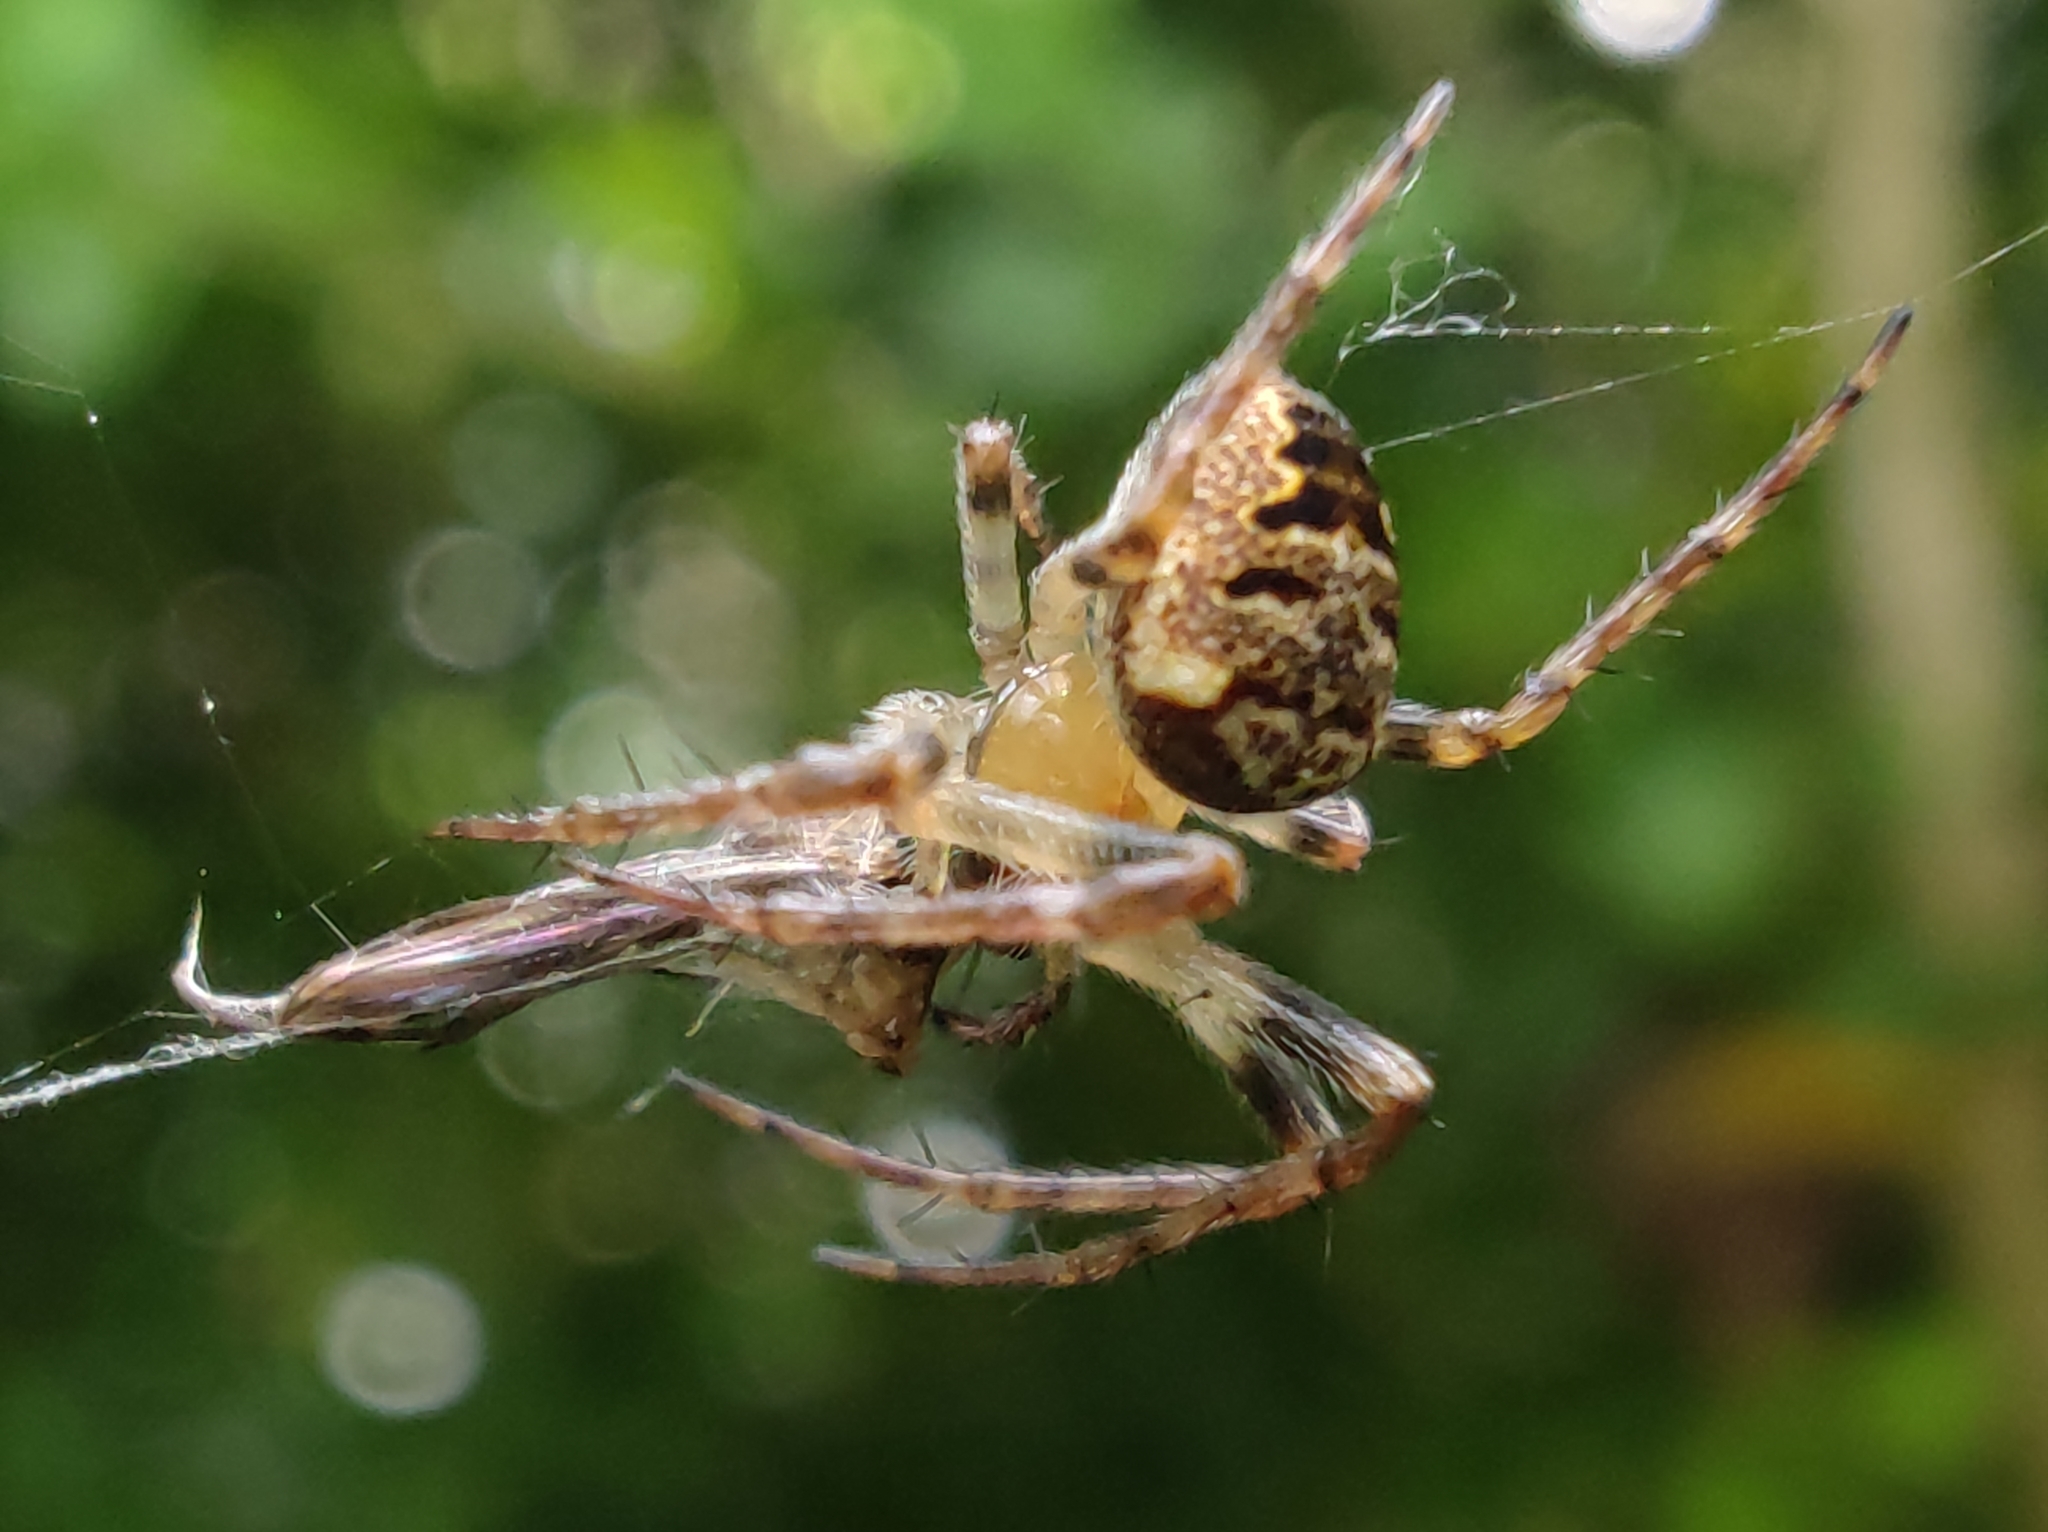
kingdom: Animalia
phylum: Arthropoda
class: Arachnida
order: Araneae
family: Araneidae
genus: Zilla
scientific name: Zilla diodia
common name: Zilla diodia
